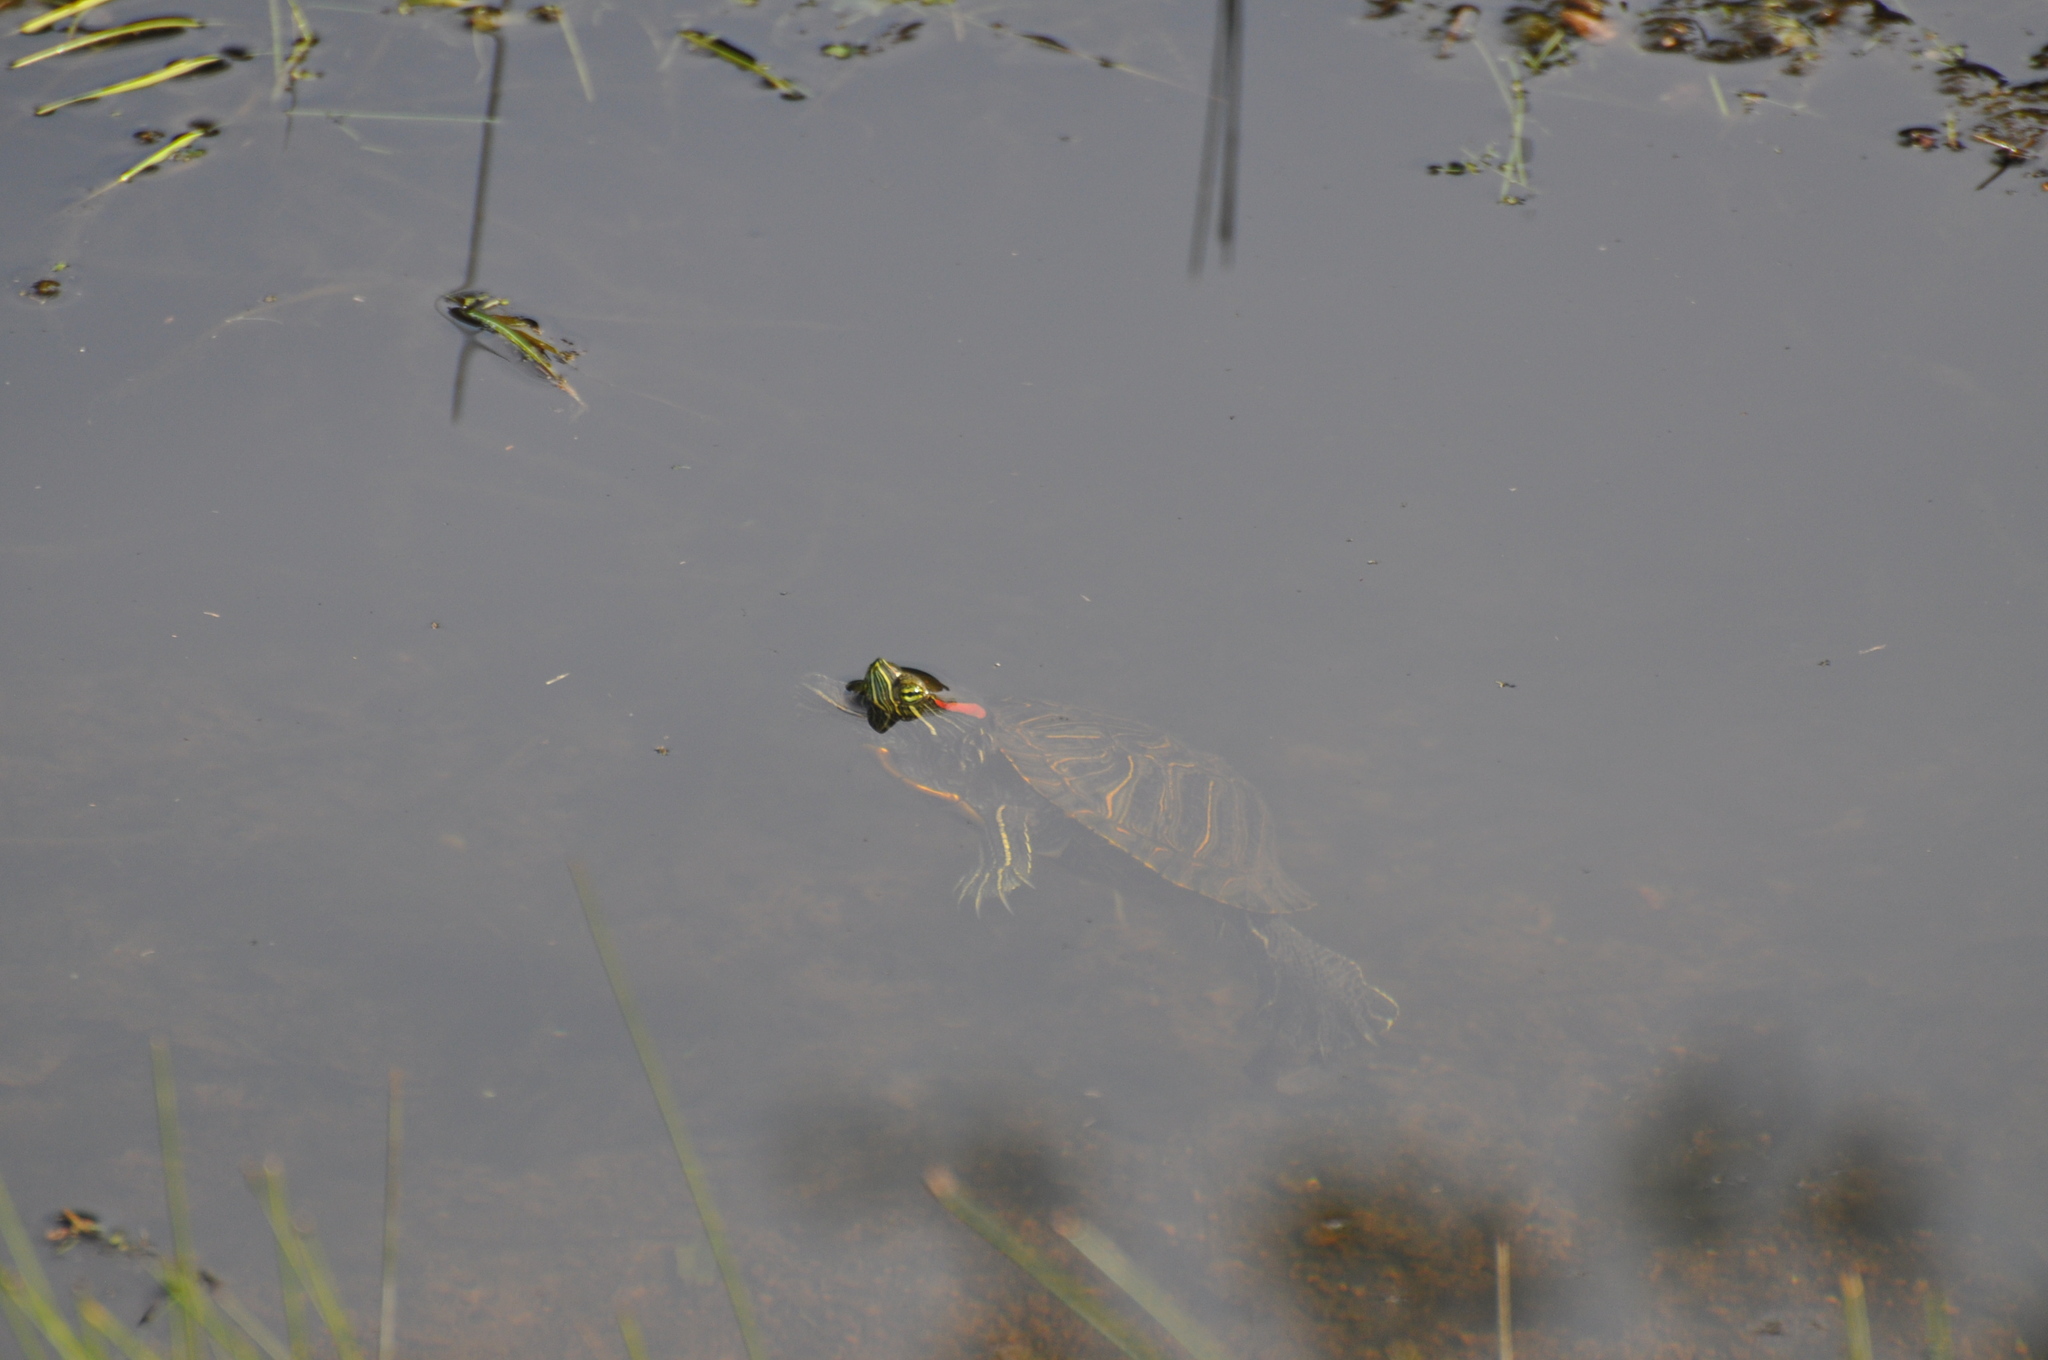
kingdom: Animalia
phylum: Chordata
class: Testudines
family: Emydidae
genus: Trachemys
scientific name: Trachemys scripta
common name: Slider
